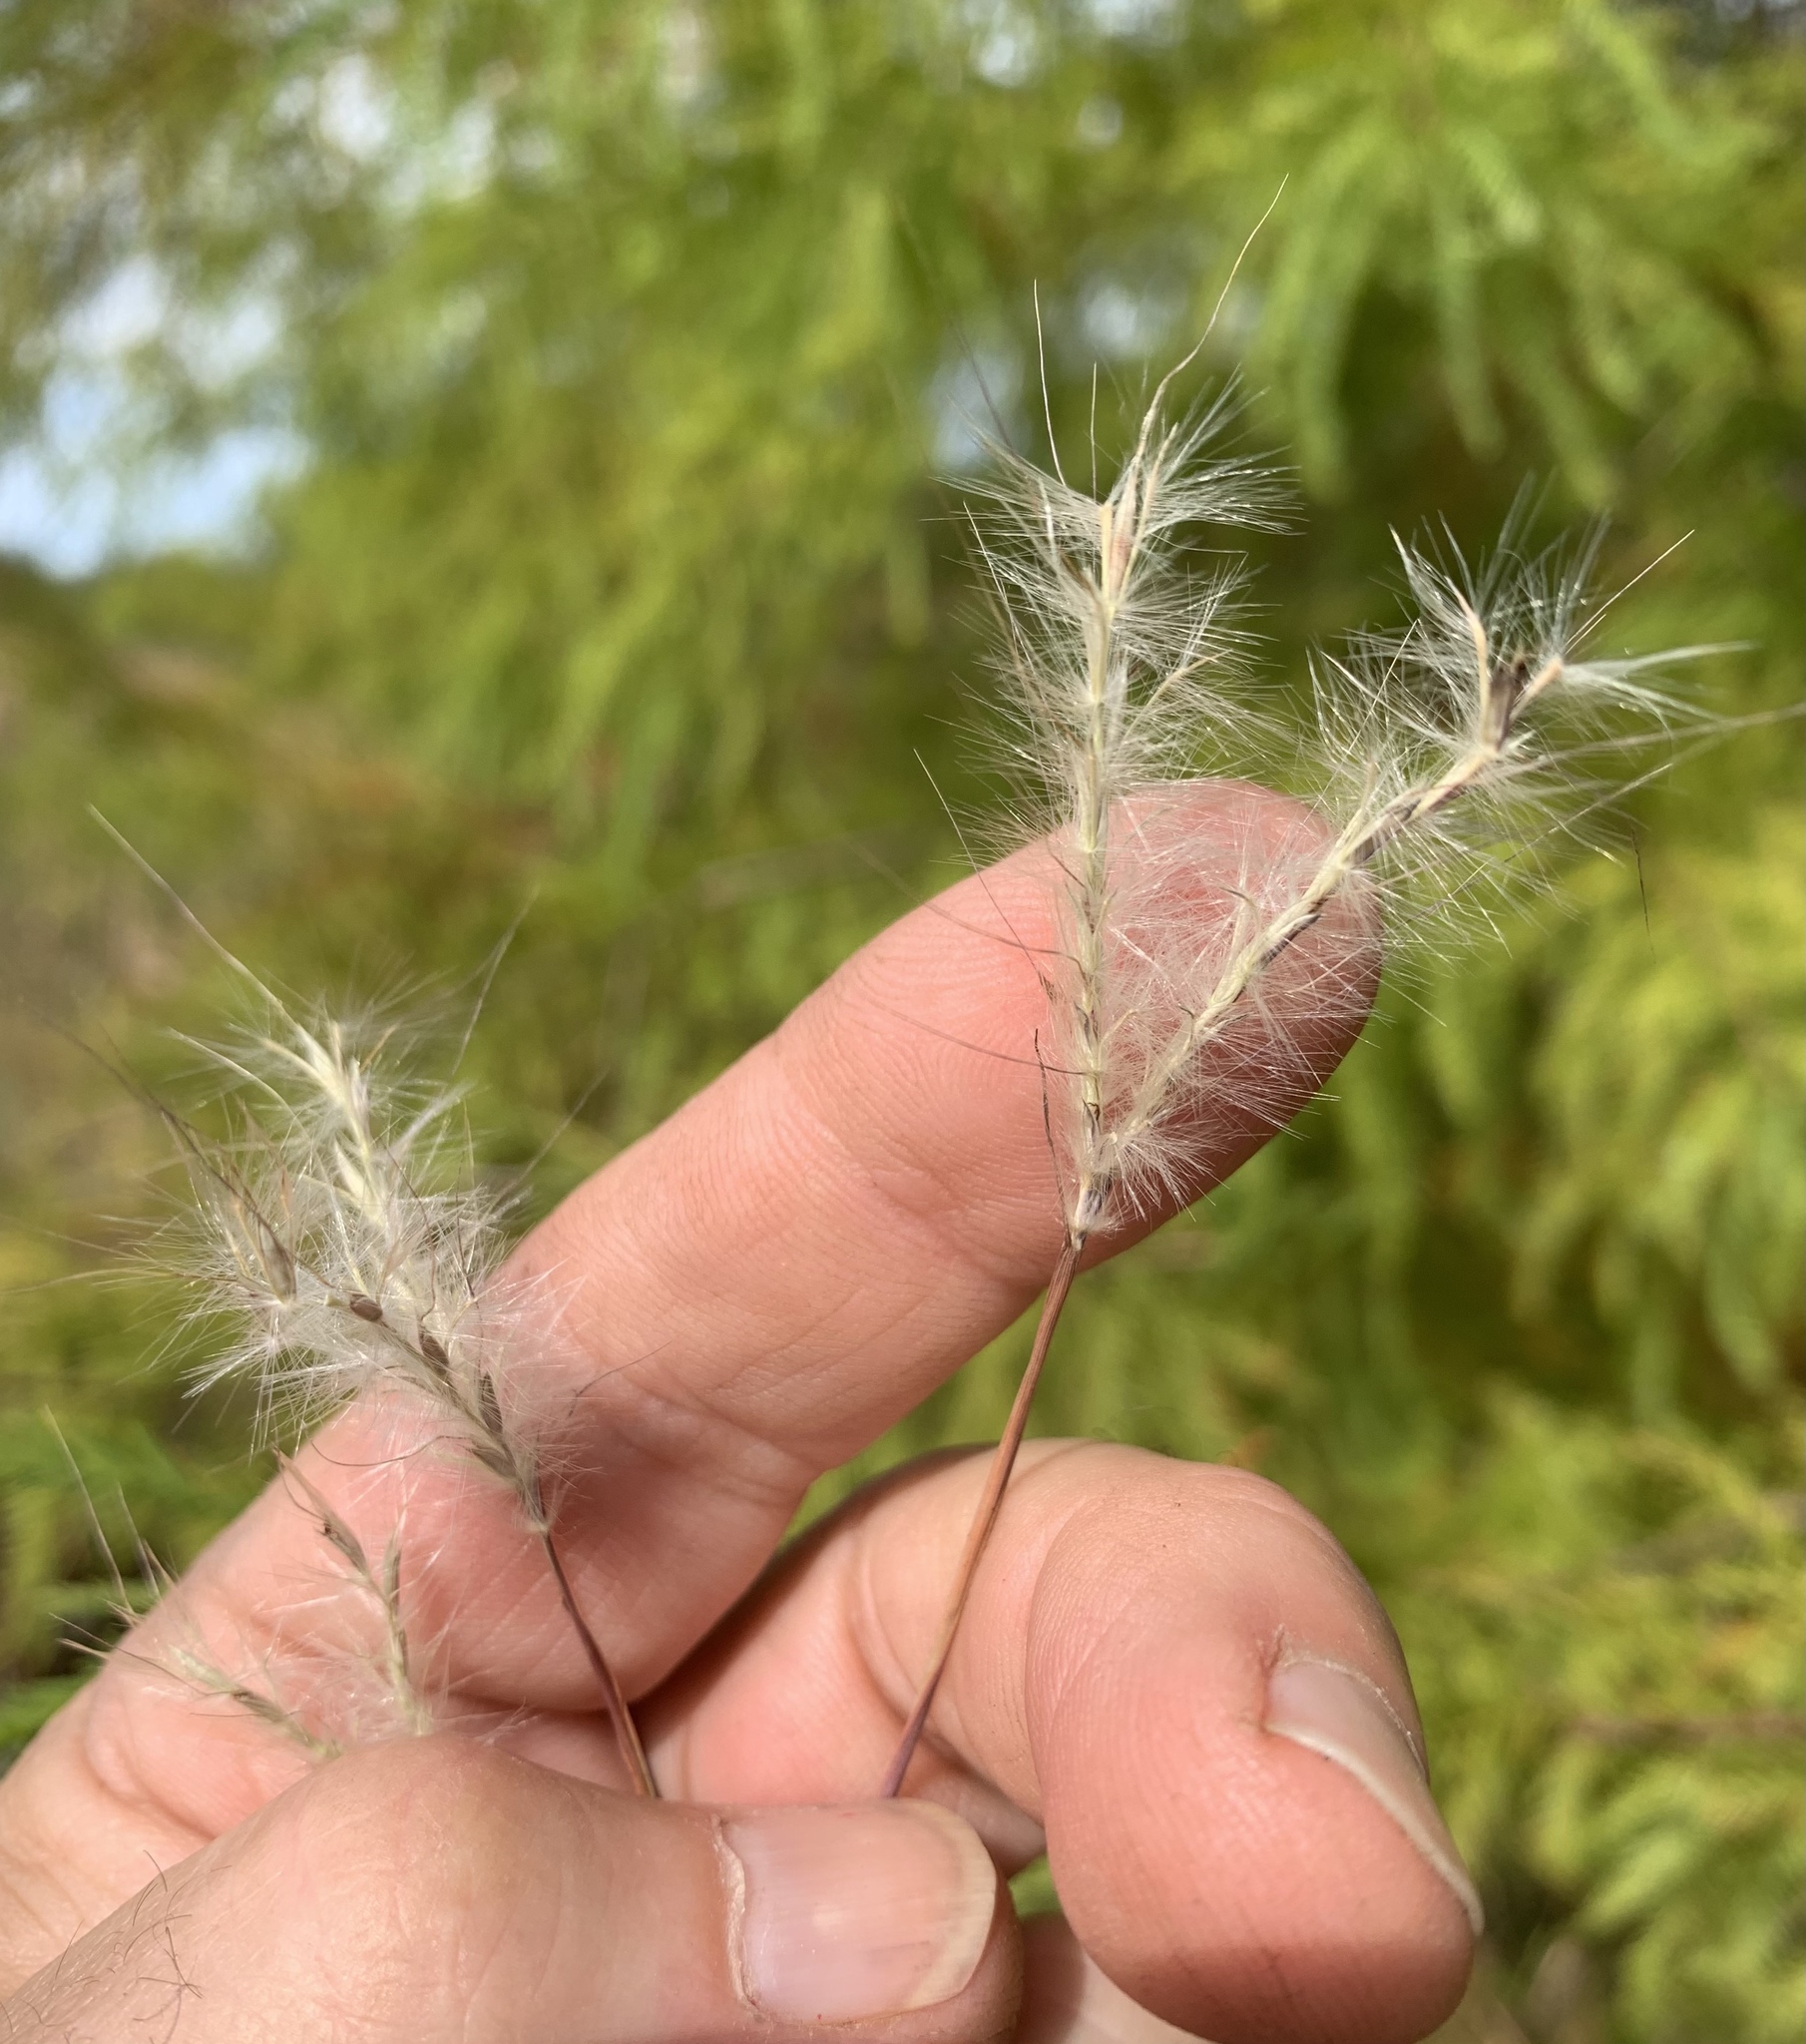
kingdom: Plantae
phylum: Tracheophyta
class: Liliopsida
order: Poales
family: Poaceae
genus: Andropogon
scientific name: Andropogon ternarius
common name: Split bluestem
